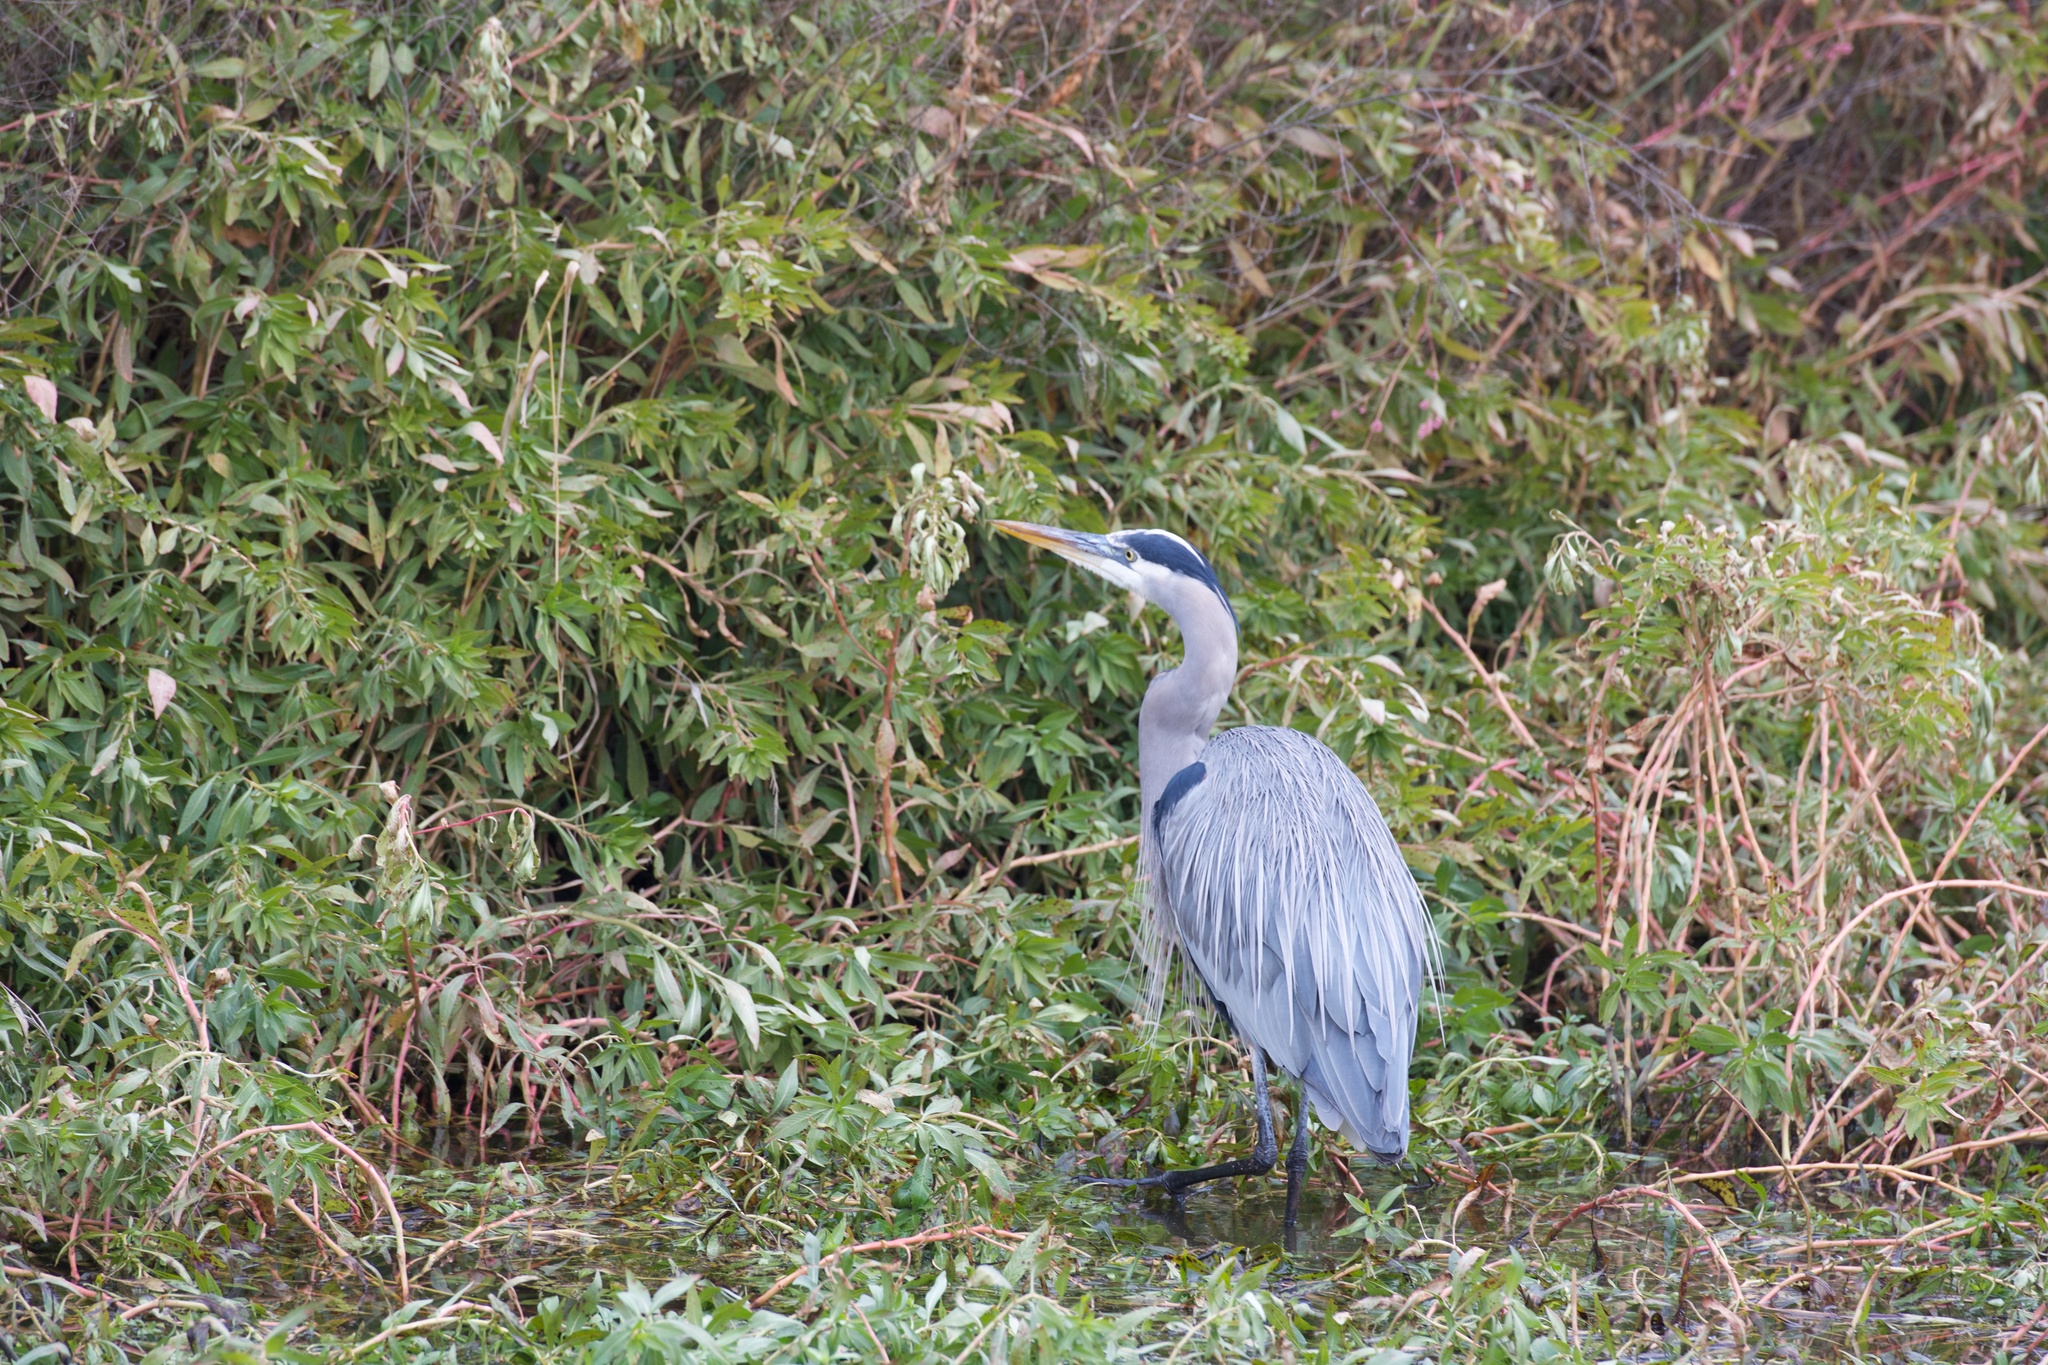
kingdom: Animalia
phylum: Chordata
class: Aves
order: Pelecaniformes
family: Ardeidae
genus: Ardea
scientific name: Ardea herodias
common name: Great blue heron
